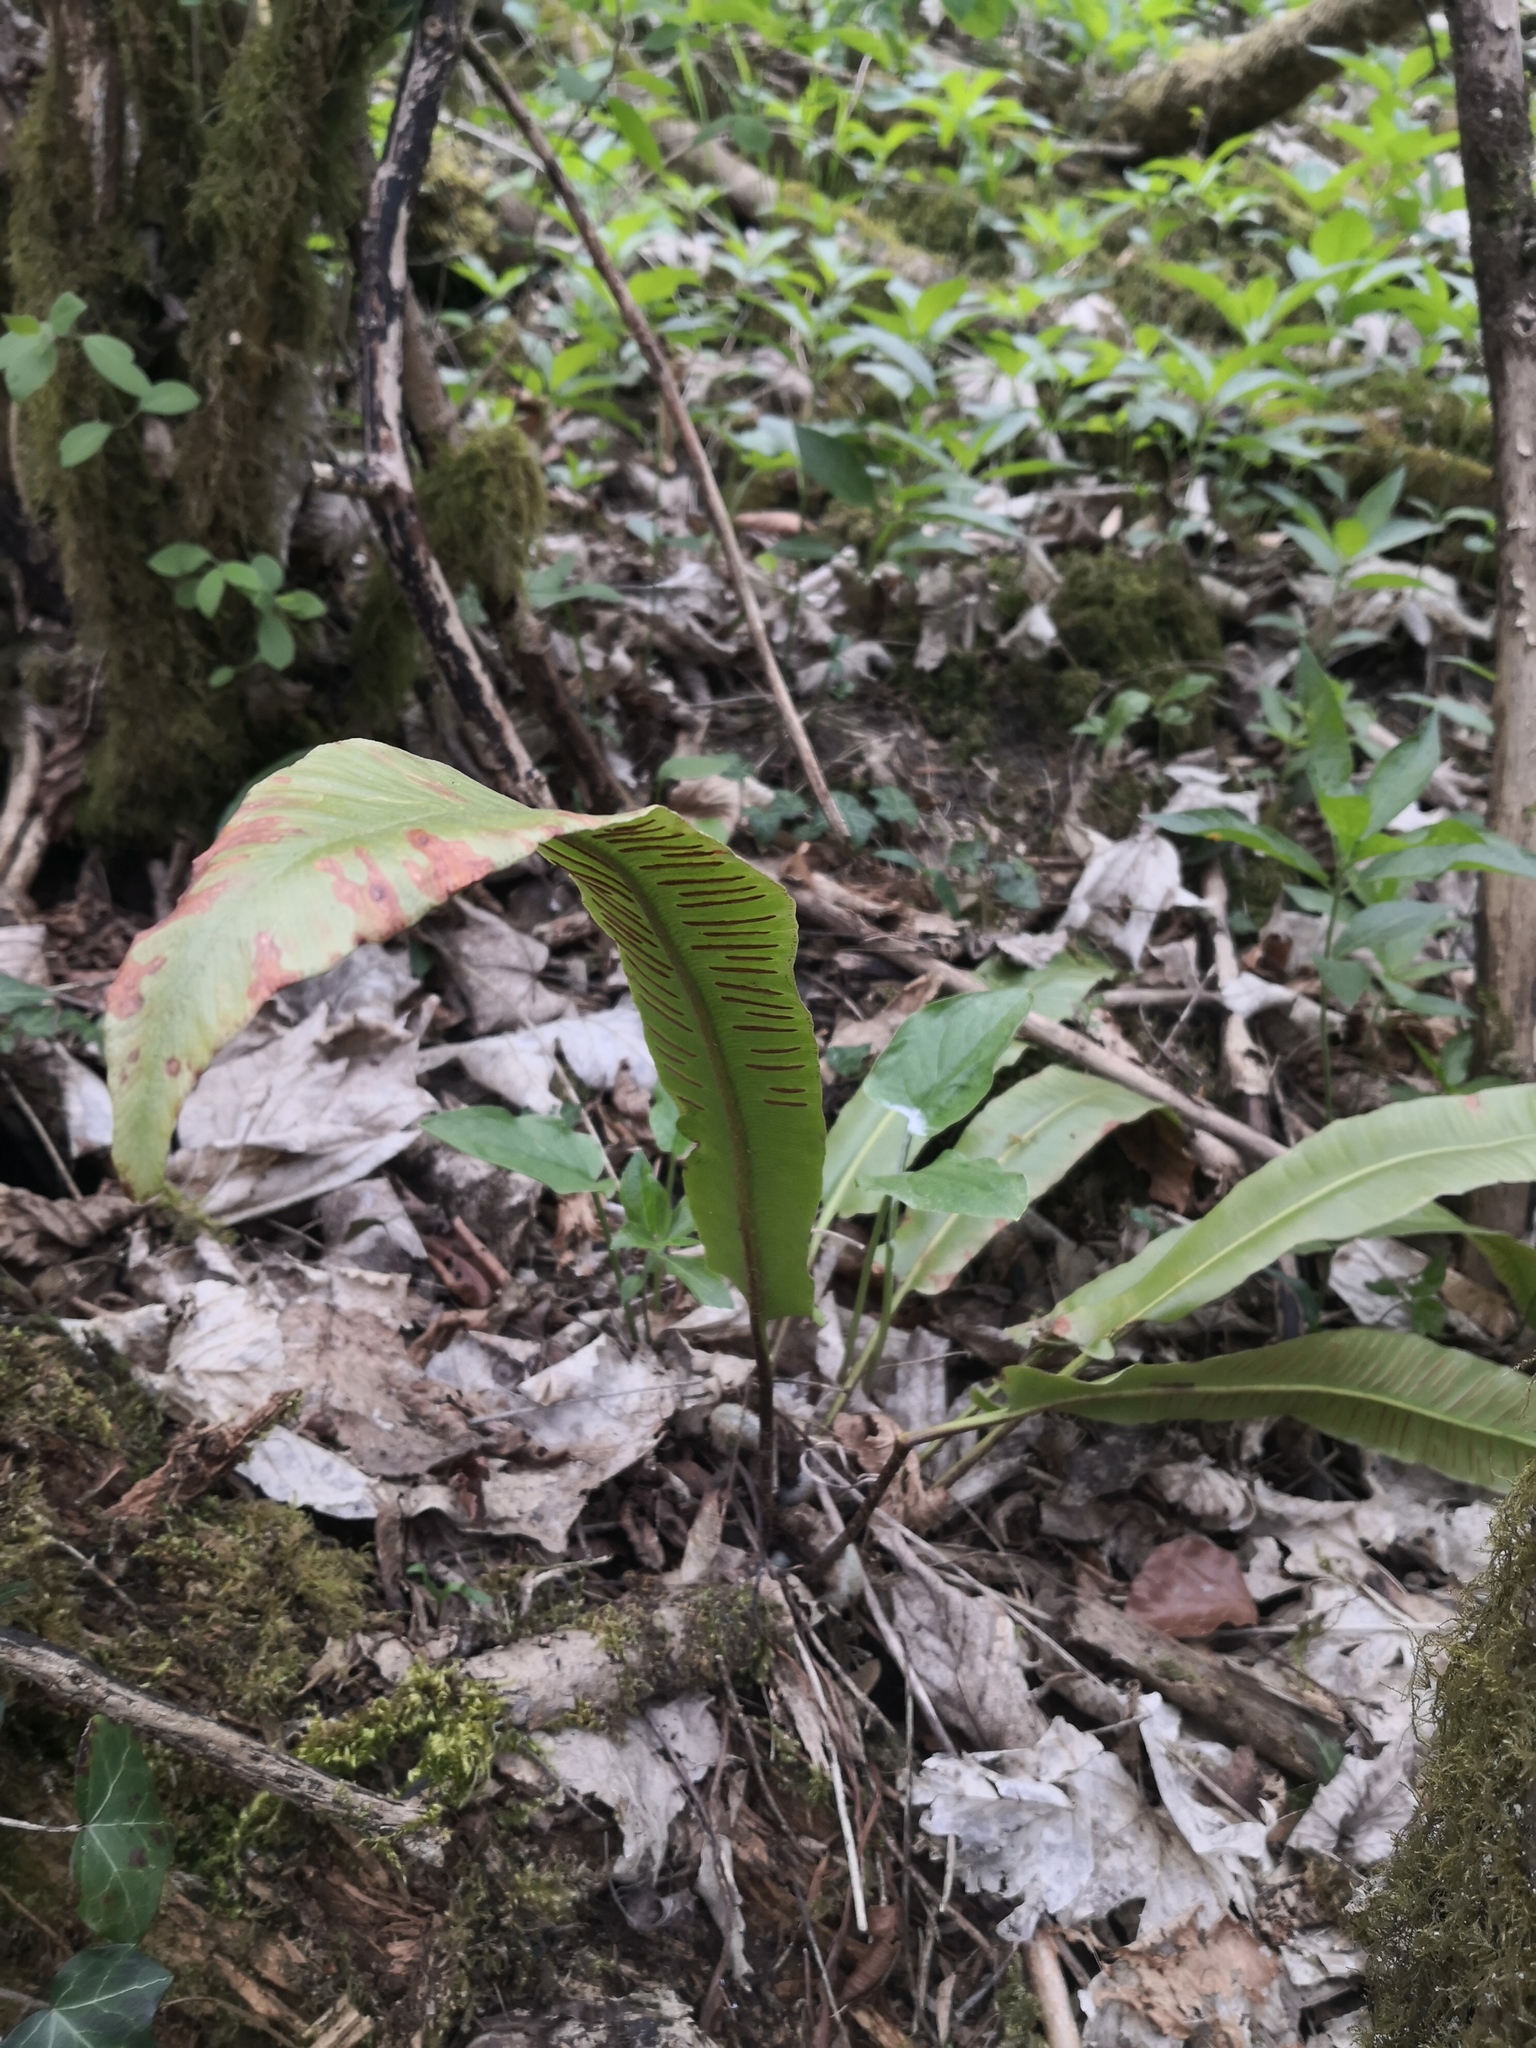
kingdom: Plantae
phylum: Tracheophyta
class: Polypodiopsida
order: Polypodiales
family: Aspleniaceae
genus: Asplenium
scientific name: Asplenium scolopendrium
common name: Hart's-tongue fern
